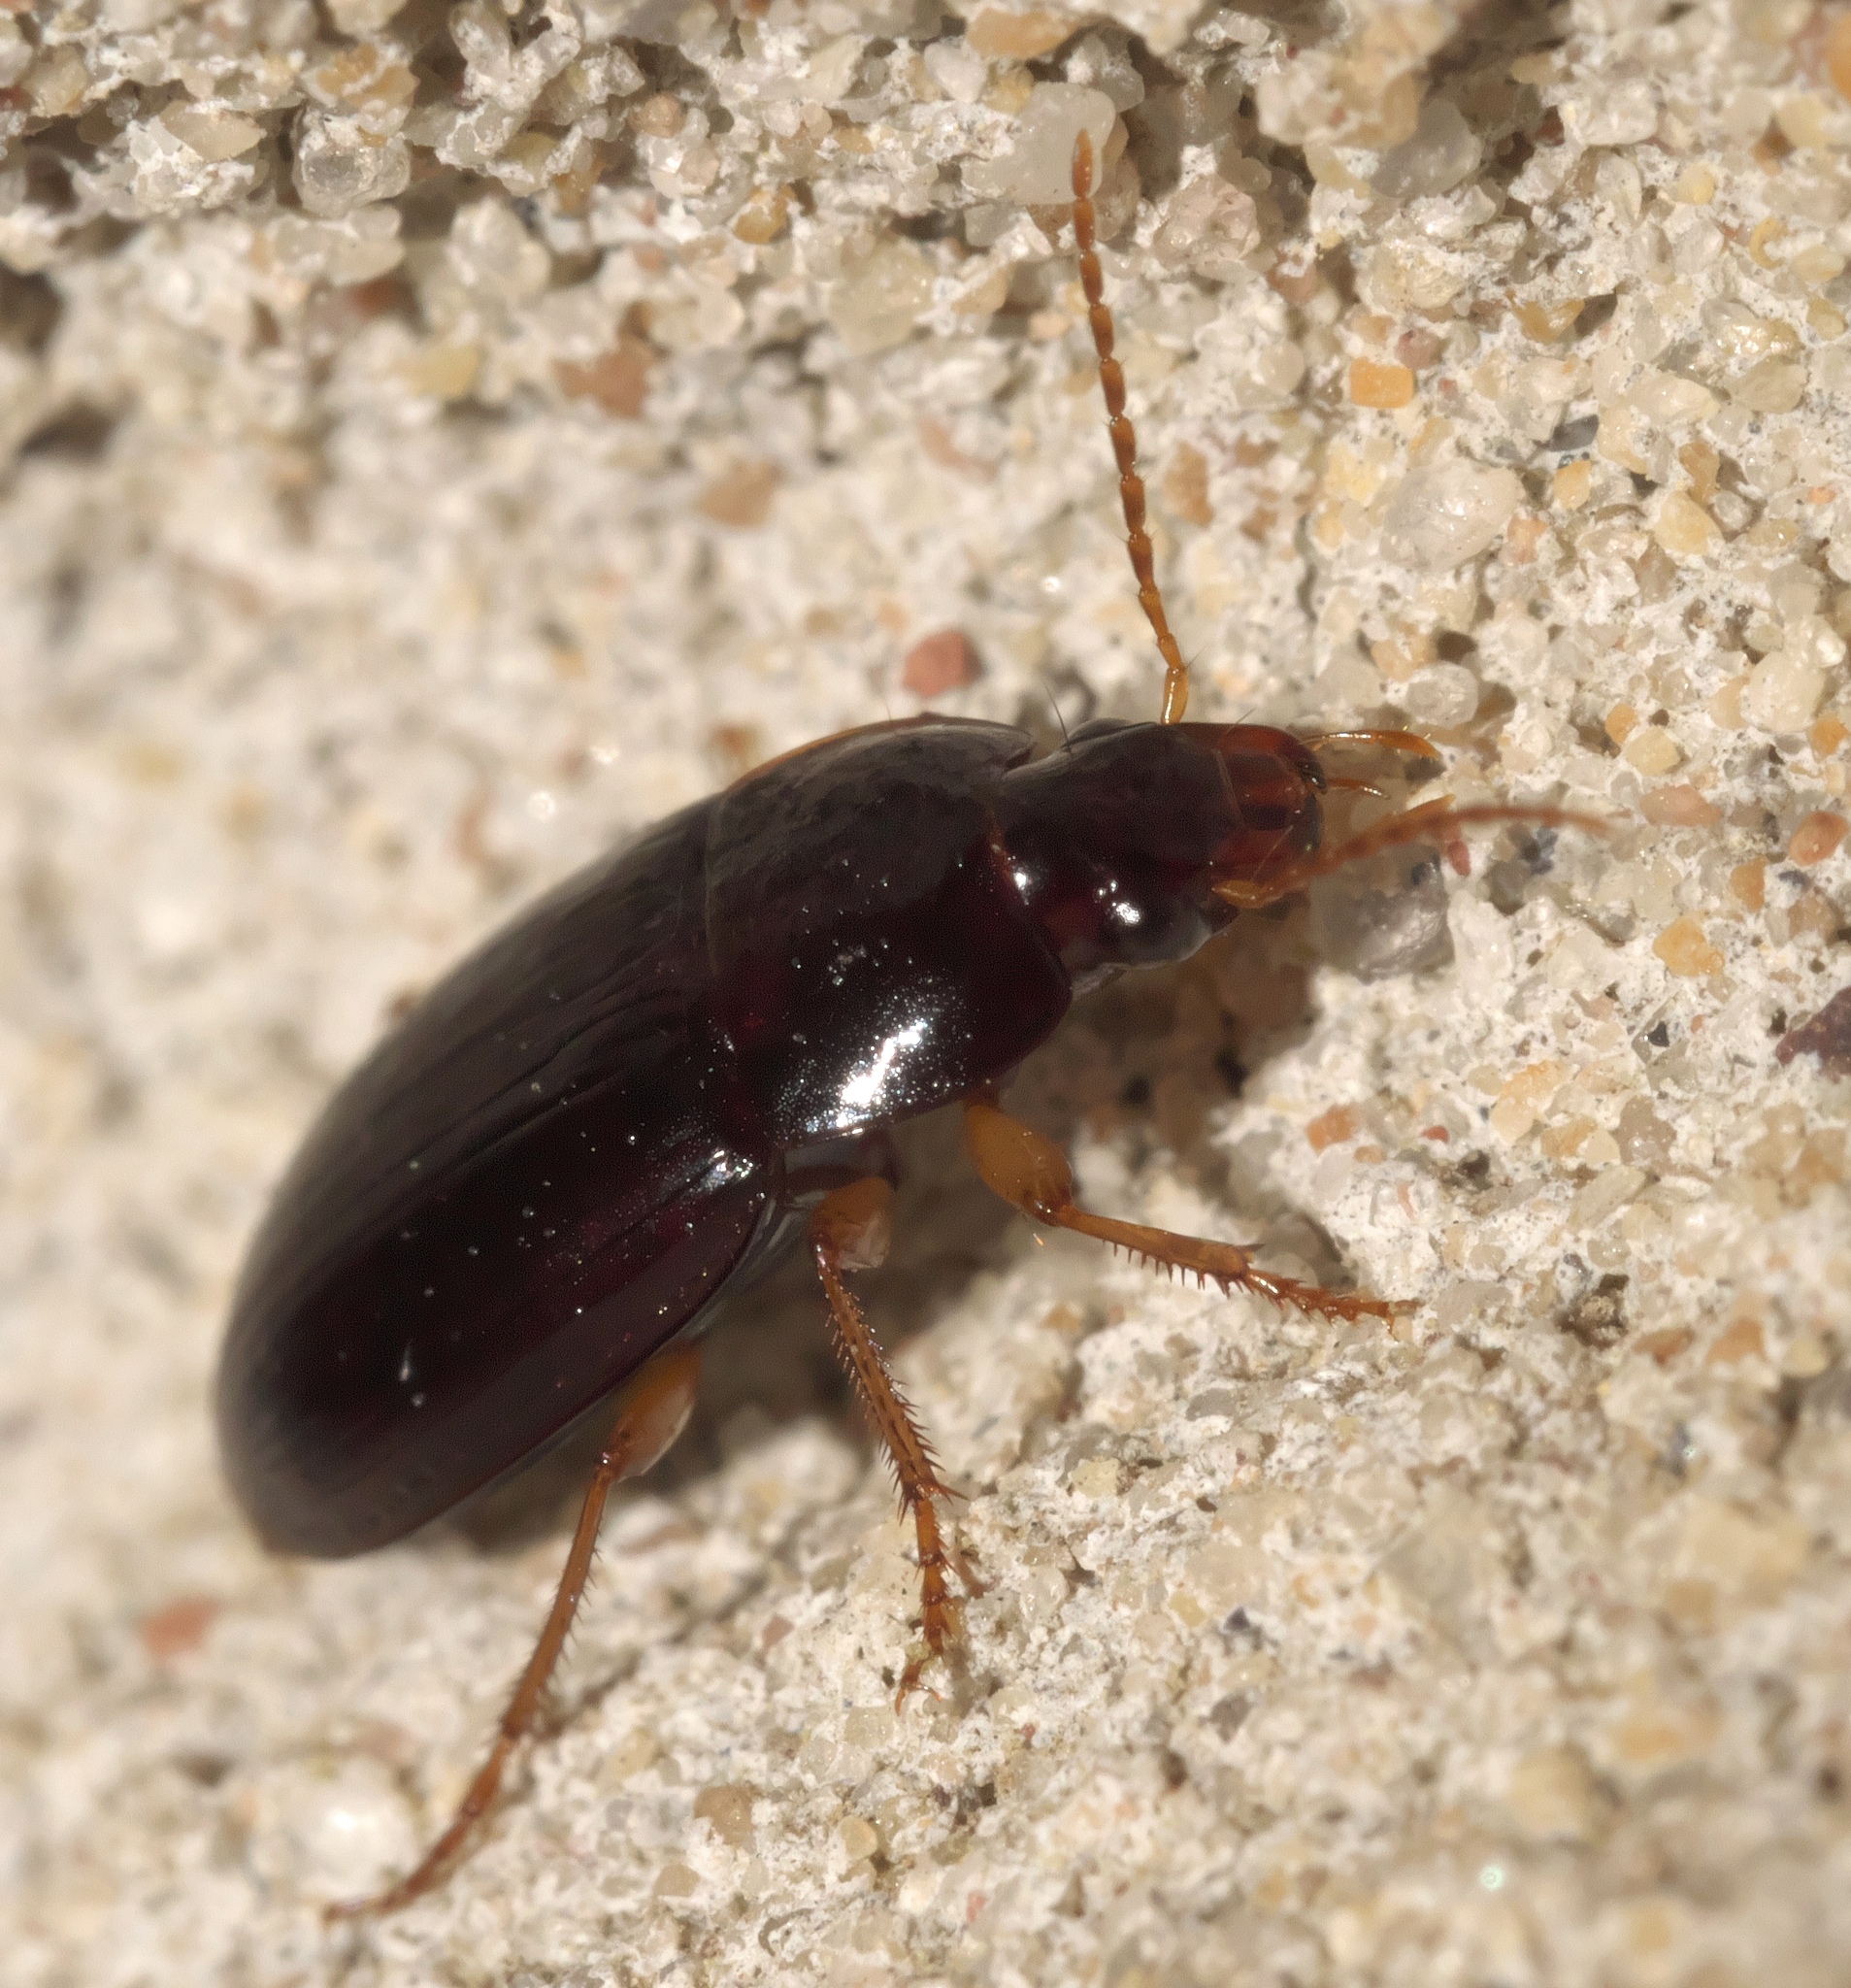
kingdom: Animalia
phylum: Arthropoda
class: Insecta
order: Coleoptera
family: Carabidae
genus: Notiobia
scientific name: Notiobia terminata
